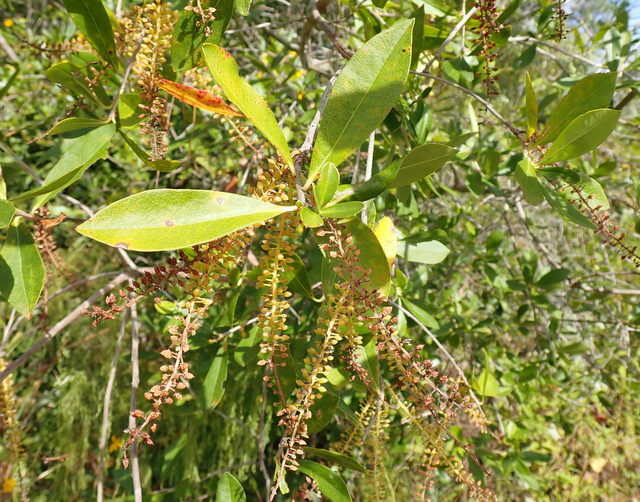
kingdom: Plantae
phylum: Tracheophyta
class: Magnoliopsida
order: Ericales
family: Cyrillaceae
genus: Cyrilla
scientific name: Cyrilla racemiflora
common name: Black titi
